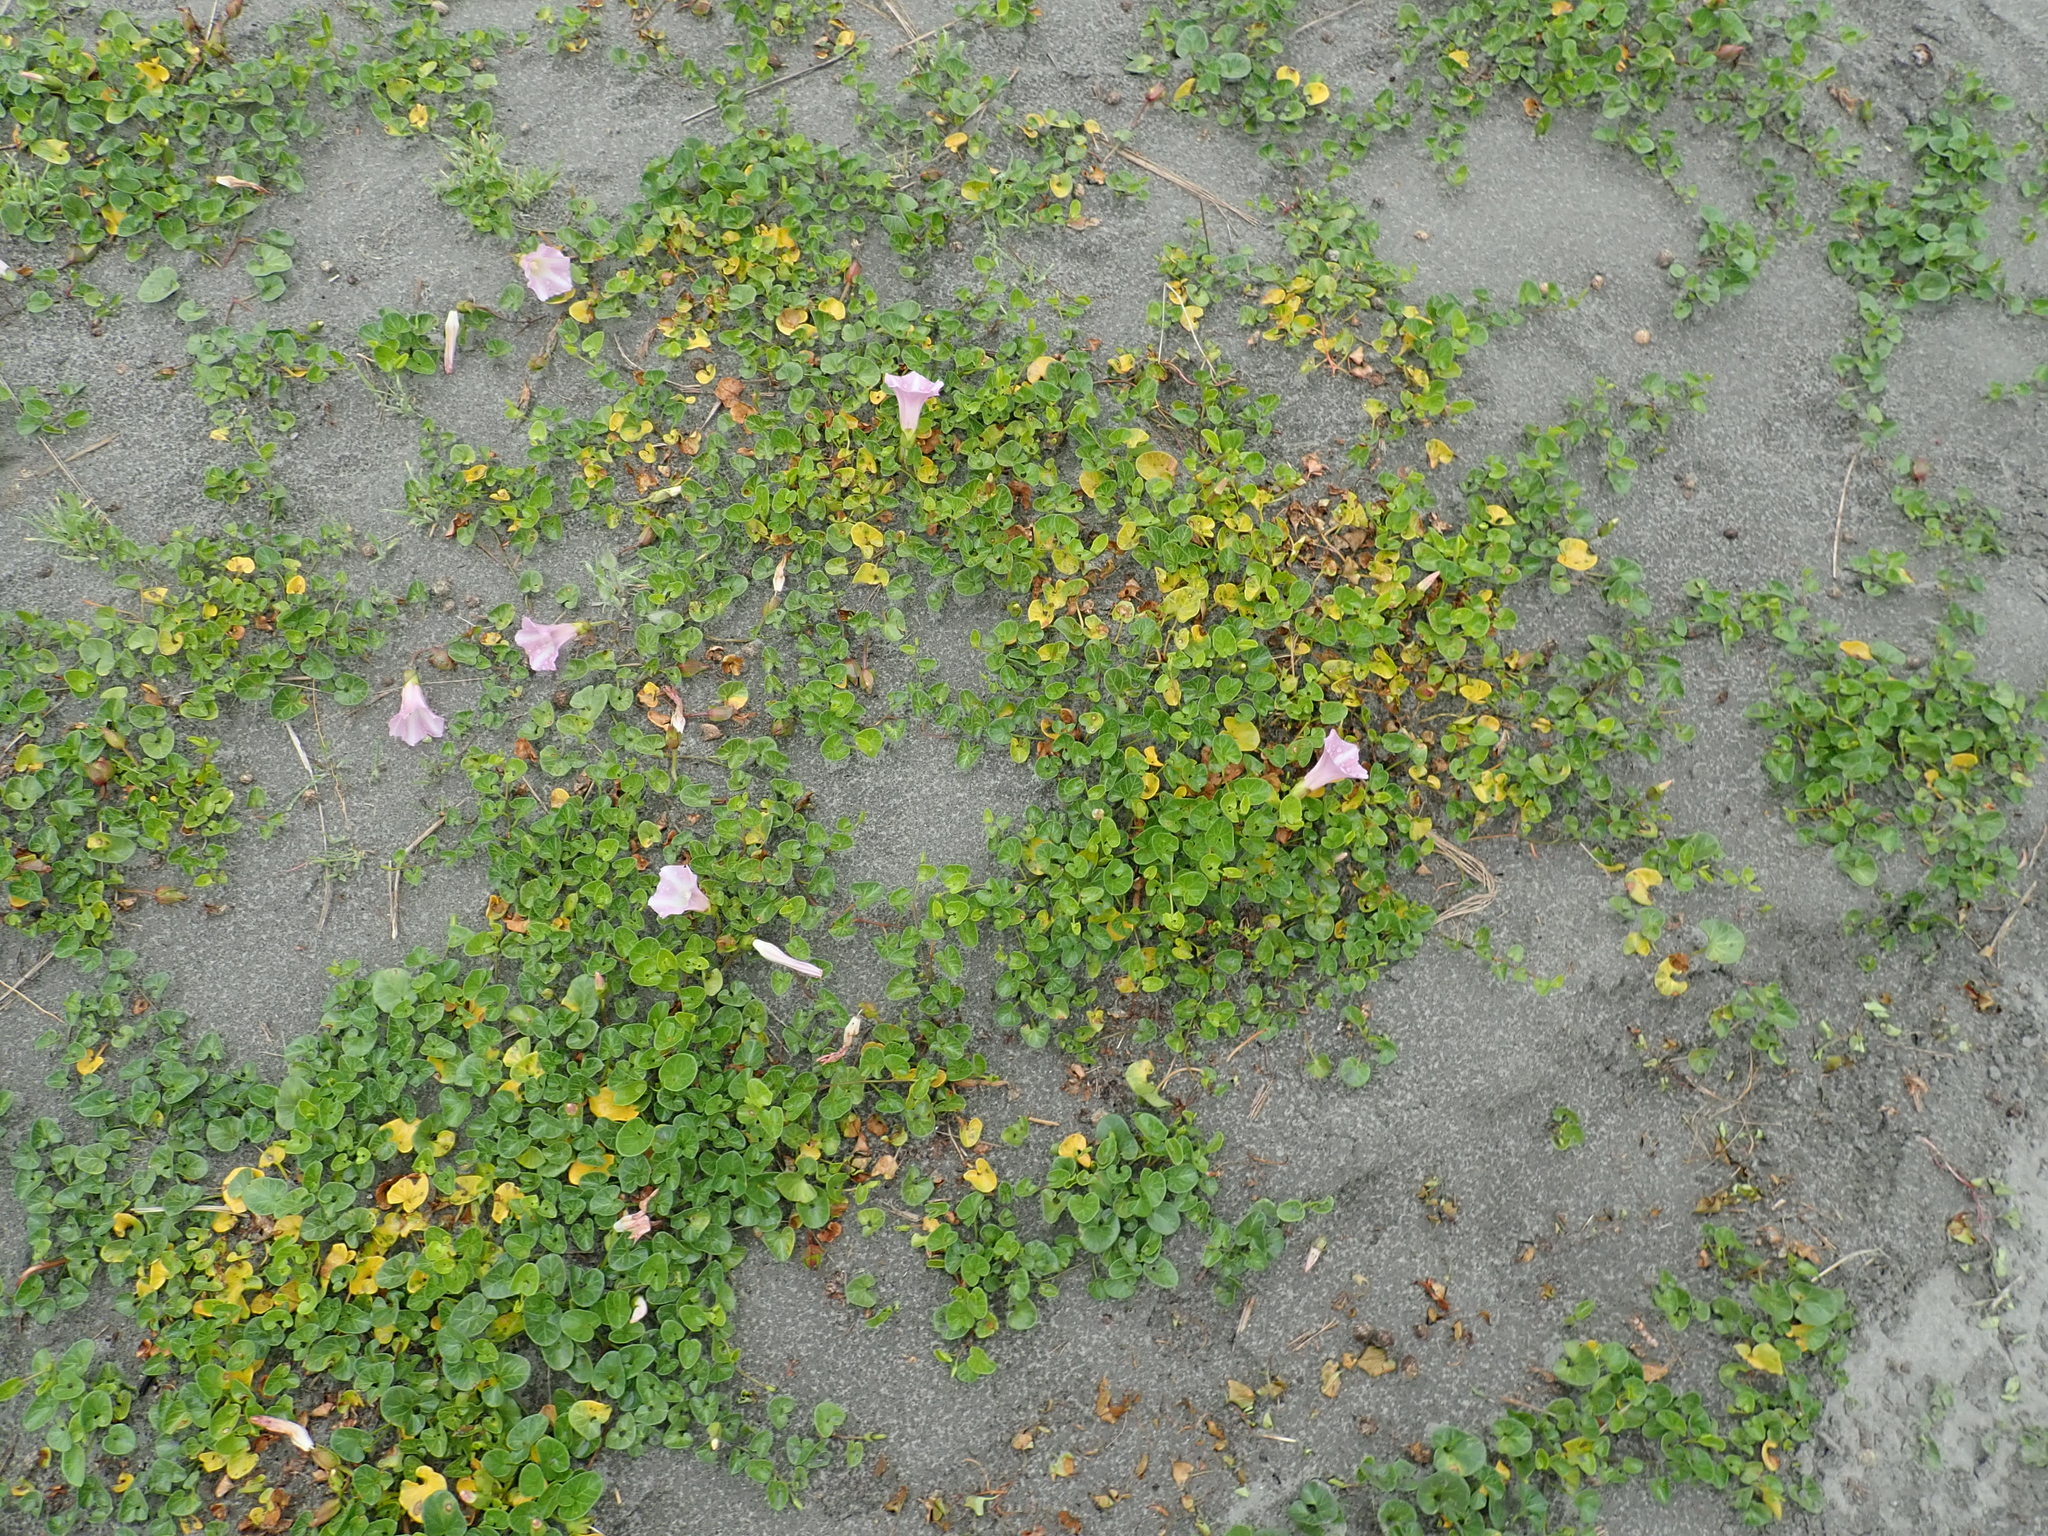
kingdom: Plantae
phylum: Tracheophyta
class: Magnoliopsida
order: Solanales
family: Convolvulaceae
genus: Calystegia
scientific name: Calystegia soldanella
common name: Sea bindweed
